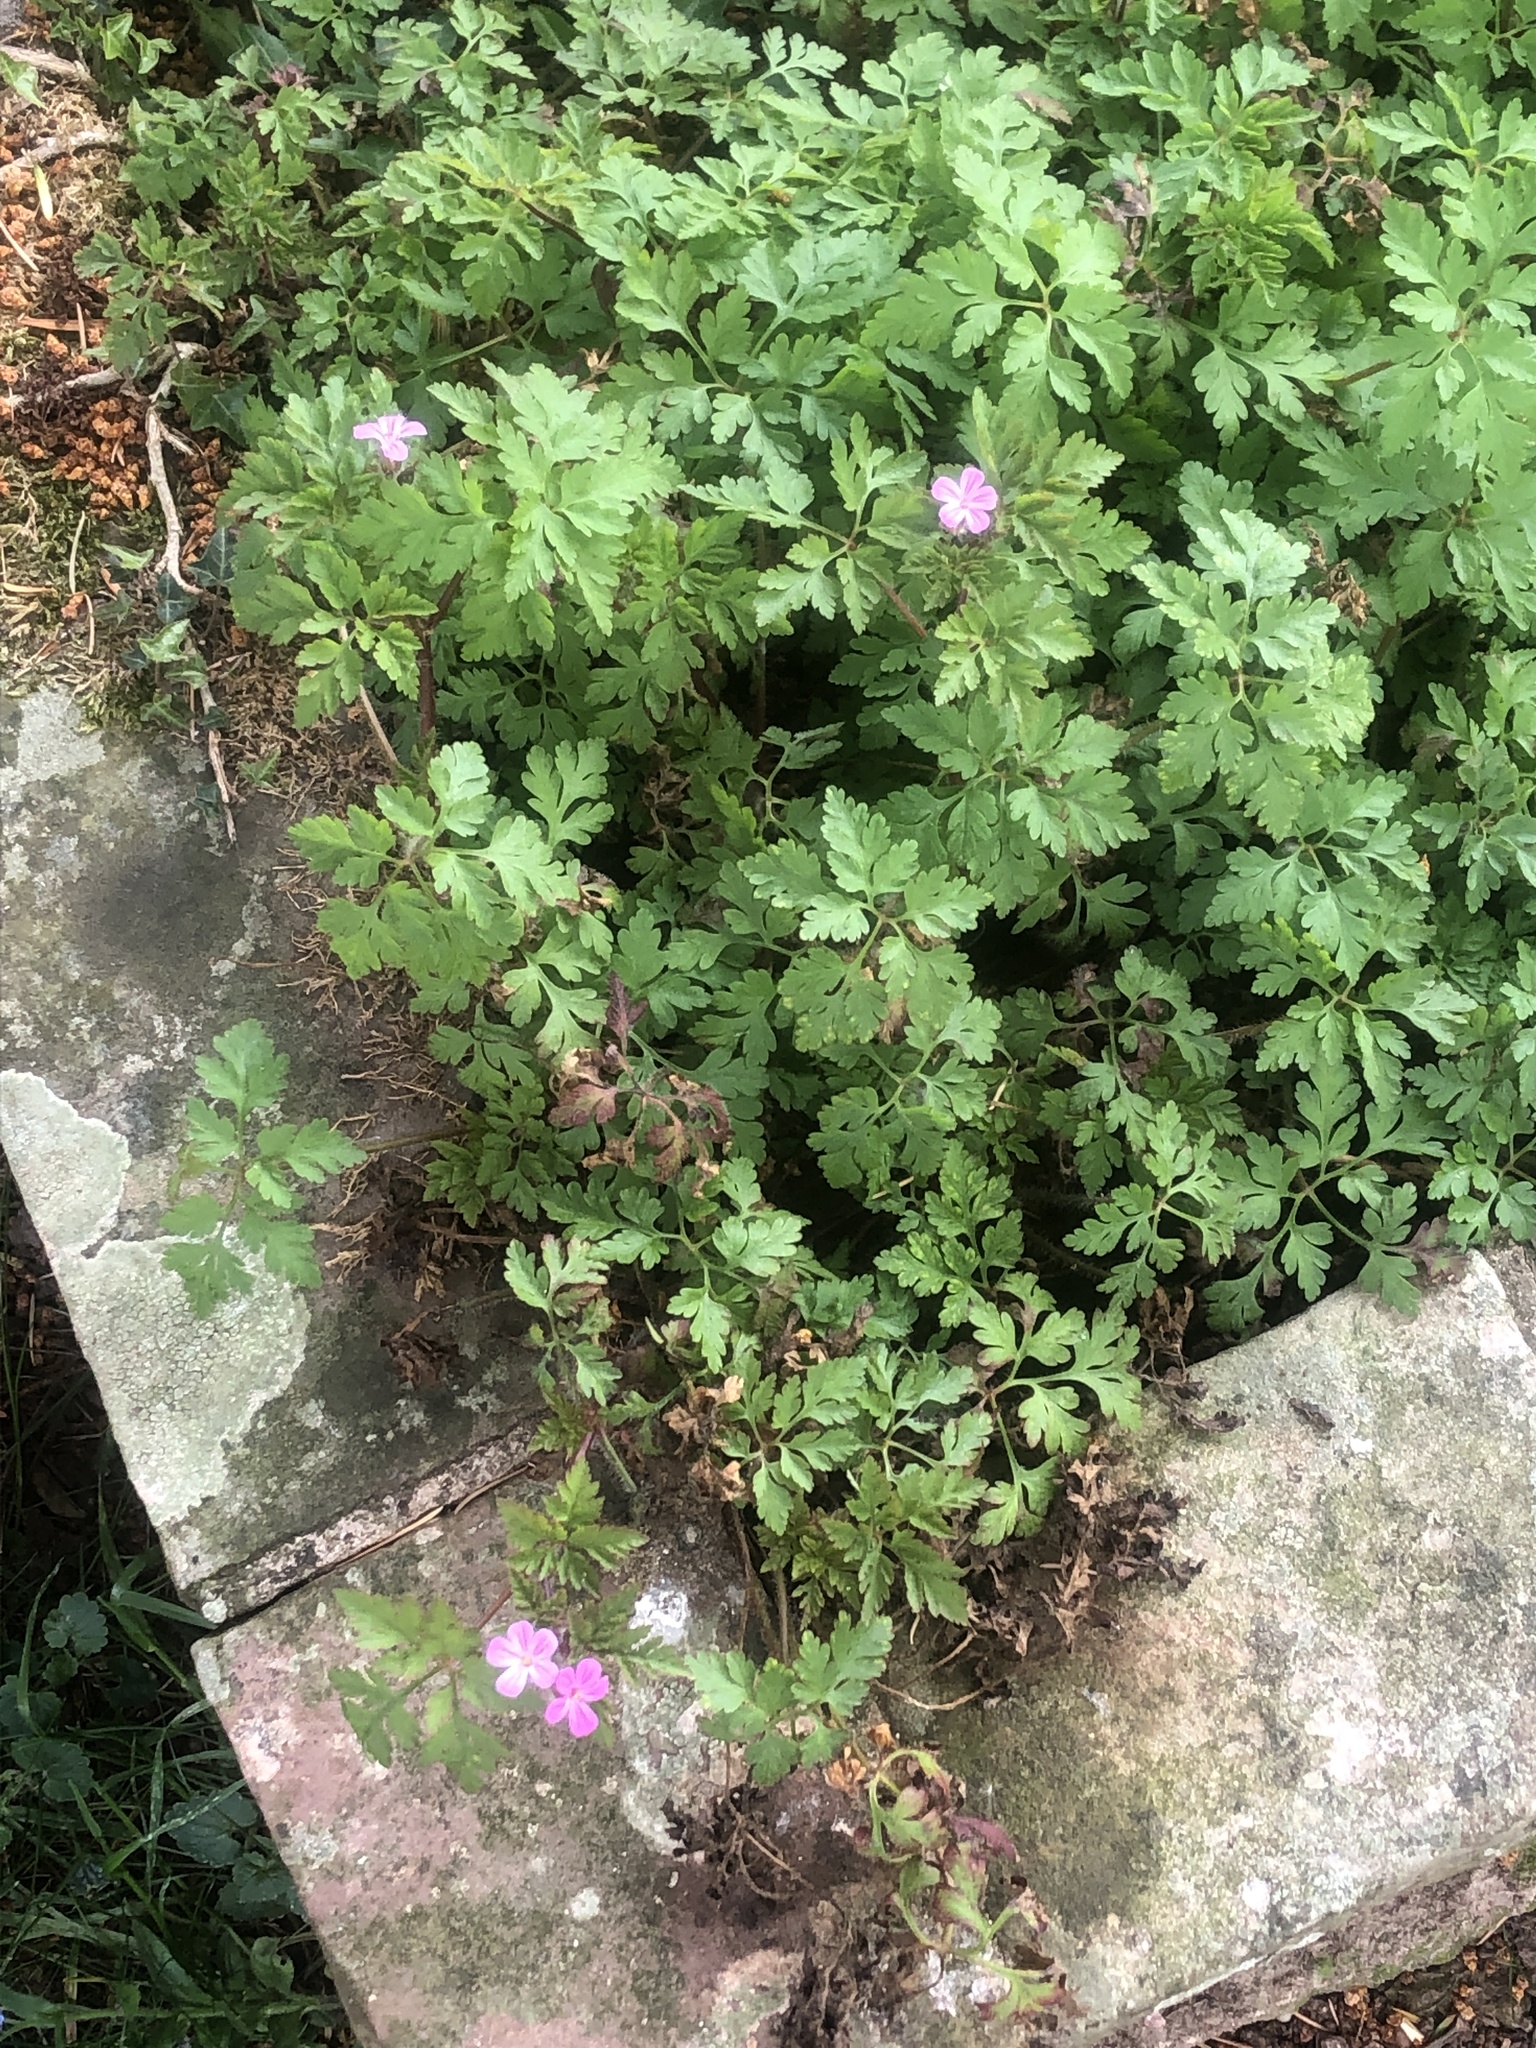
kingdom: Plantae
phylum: Tracheophyta
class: Magnoliopsida
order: Geraniales
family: Geraniaceae
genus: Geranium
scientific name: Geranium robertianum
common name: Herb-robert
